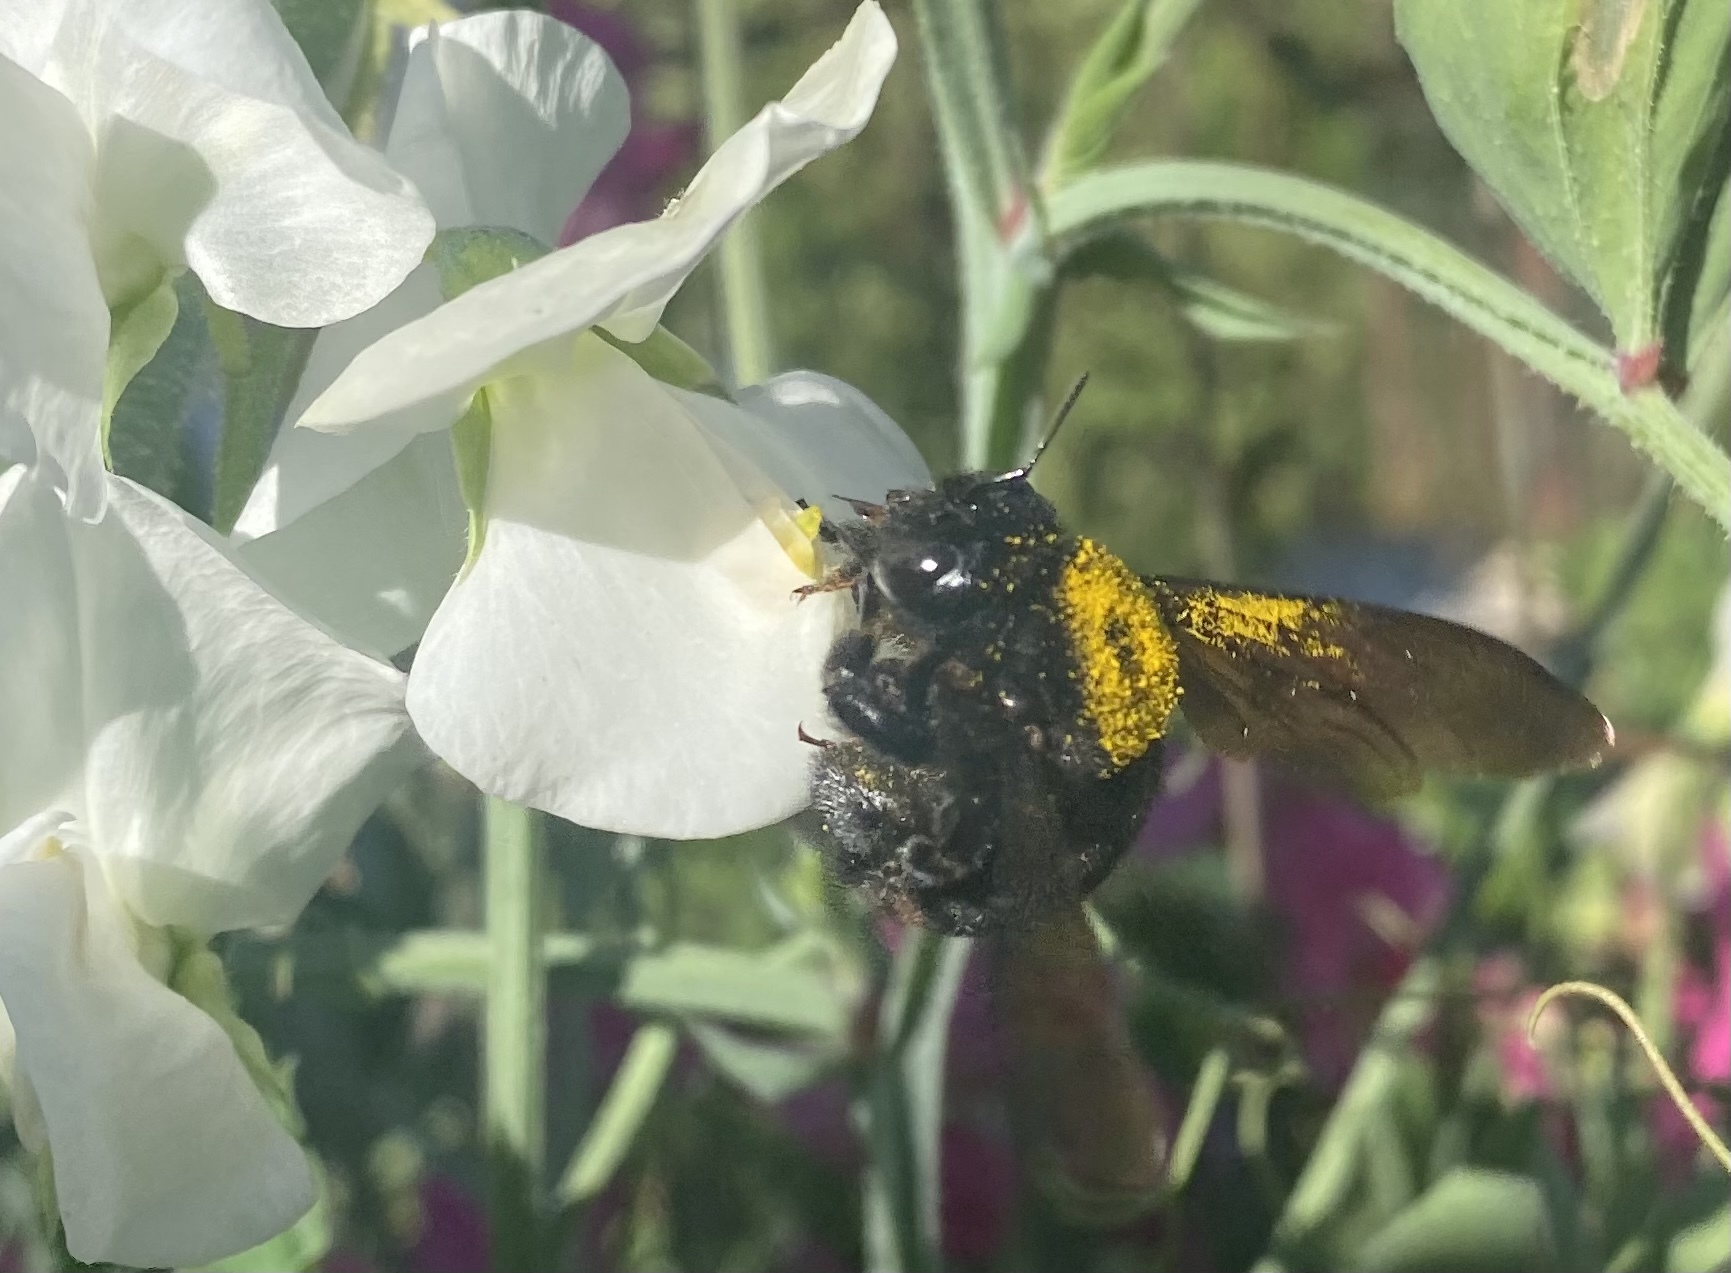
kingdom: Animalia
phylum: Arthropoda
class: Insecta
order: Hymenoptera
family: Apidae
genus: Xylocopa
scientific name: Xylocopa sonorina
